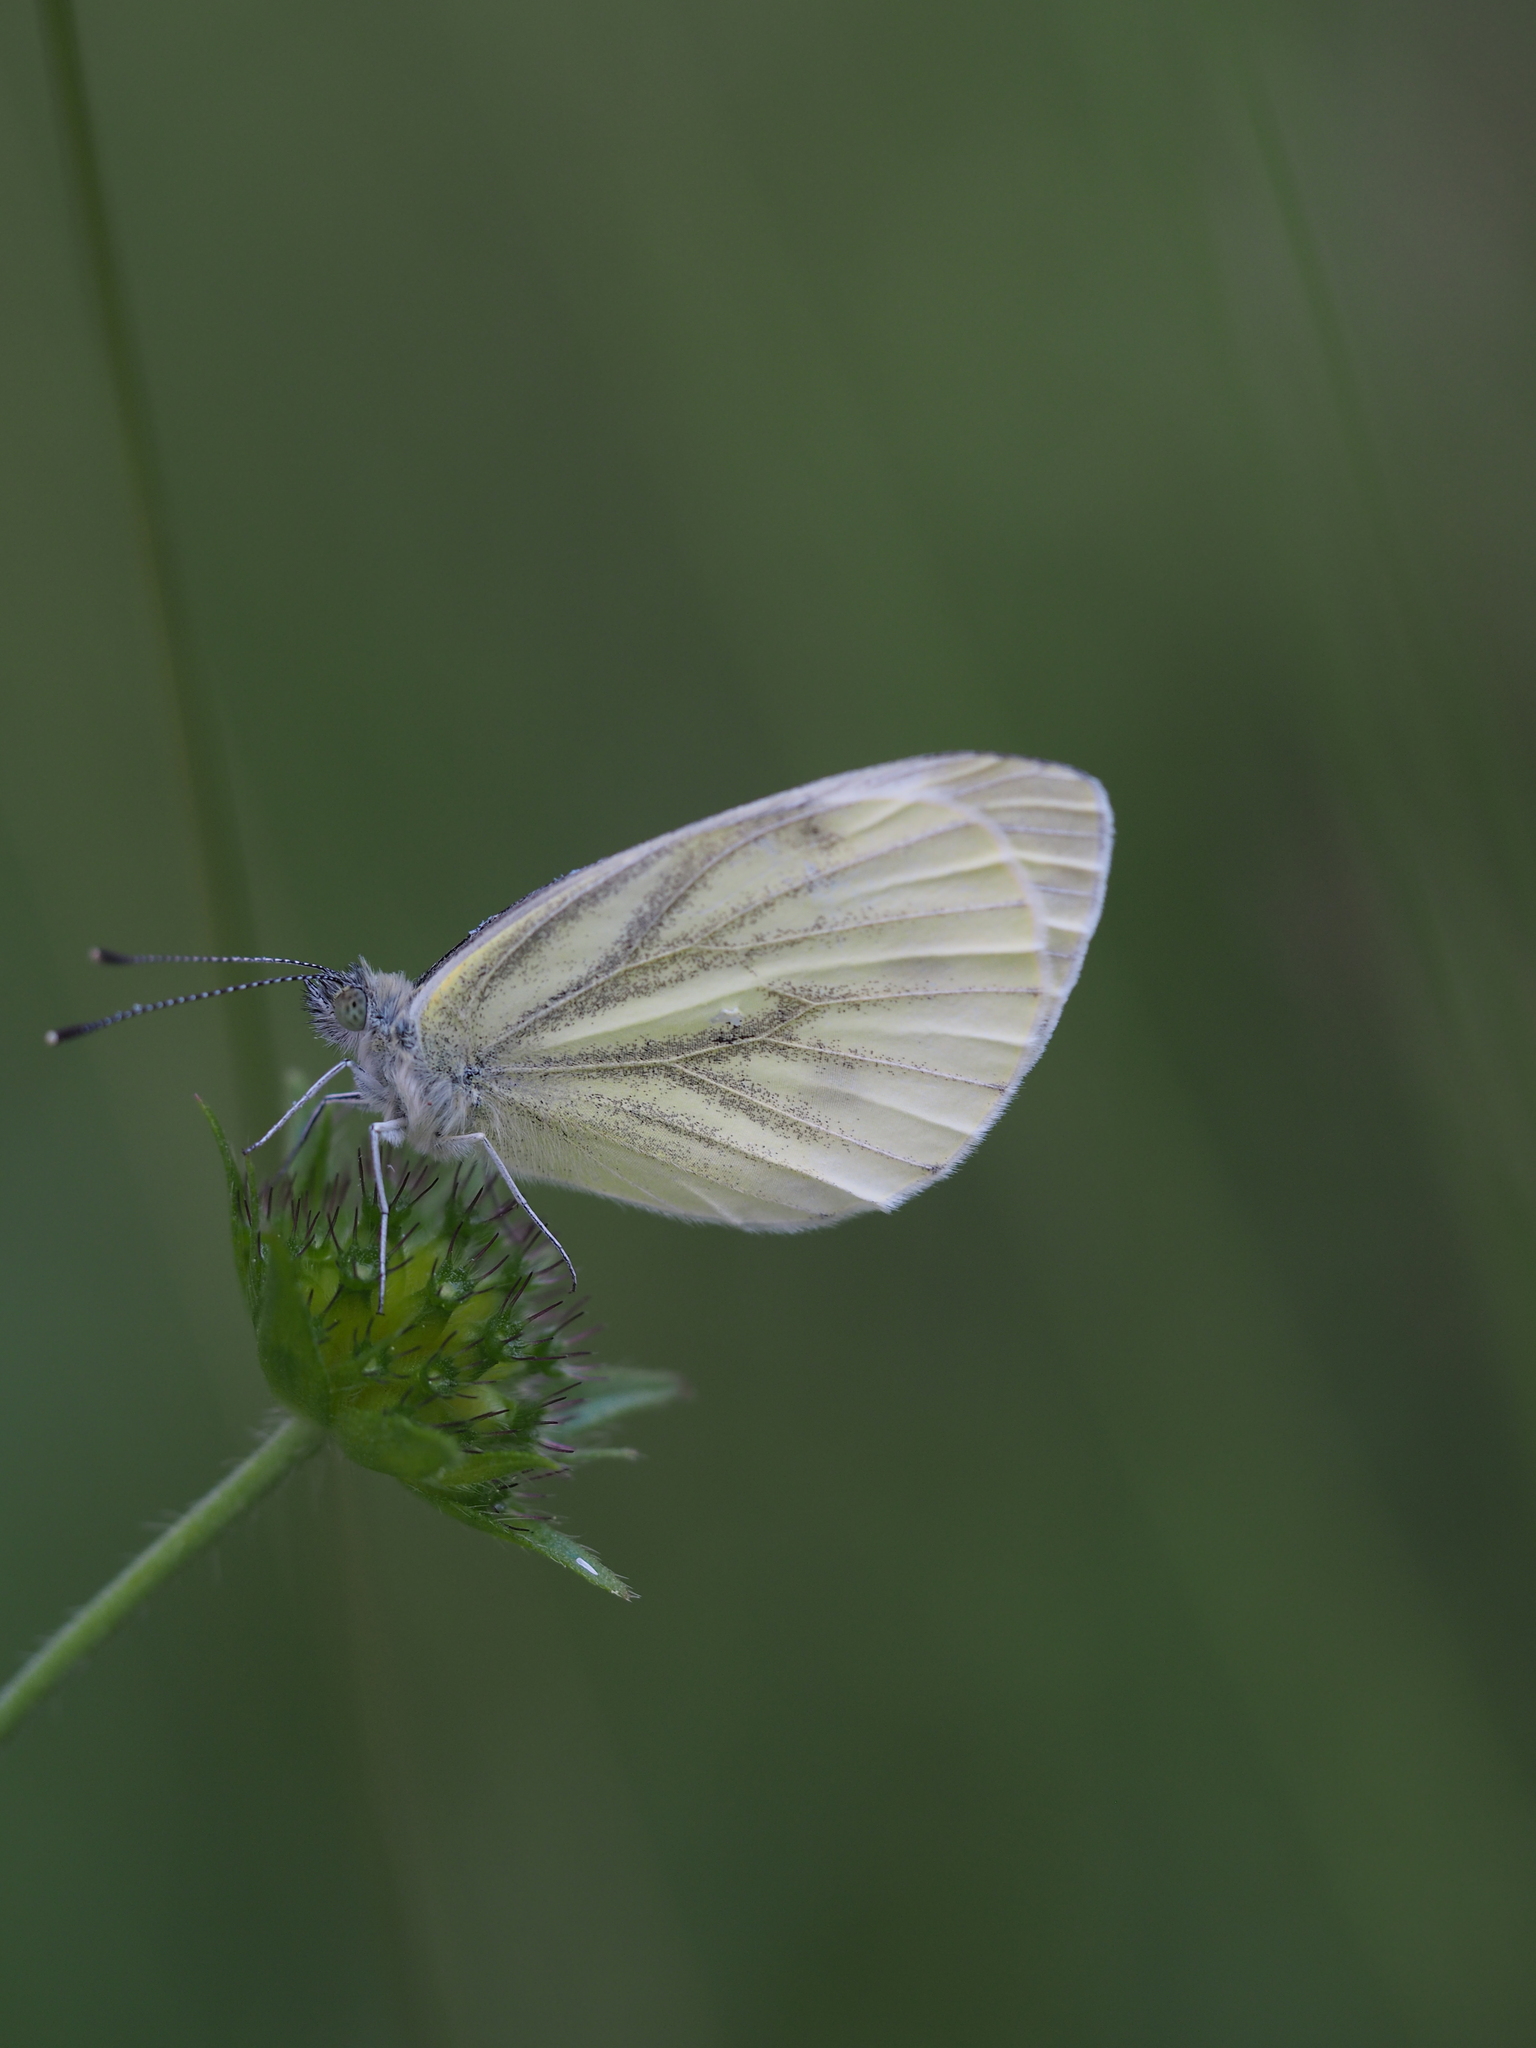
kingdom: Animalia
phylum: Arthropoda
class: Insecta
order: Lepidoptera
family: Pieridae
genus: Pieris
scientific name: Pieris napi
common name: Green-veined white
